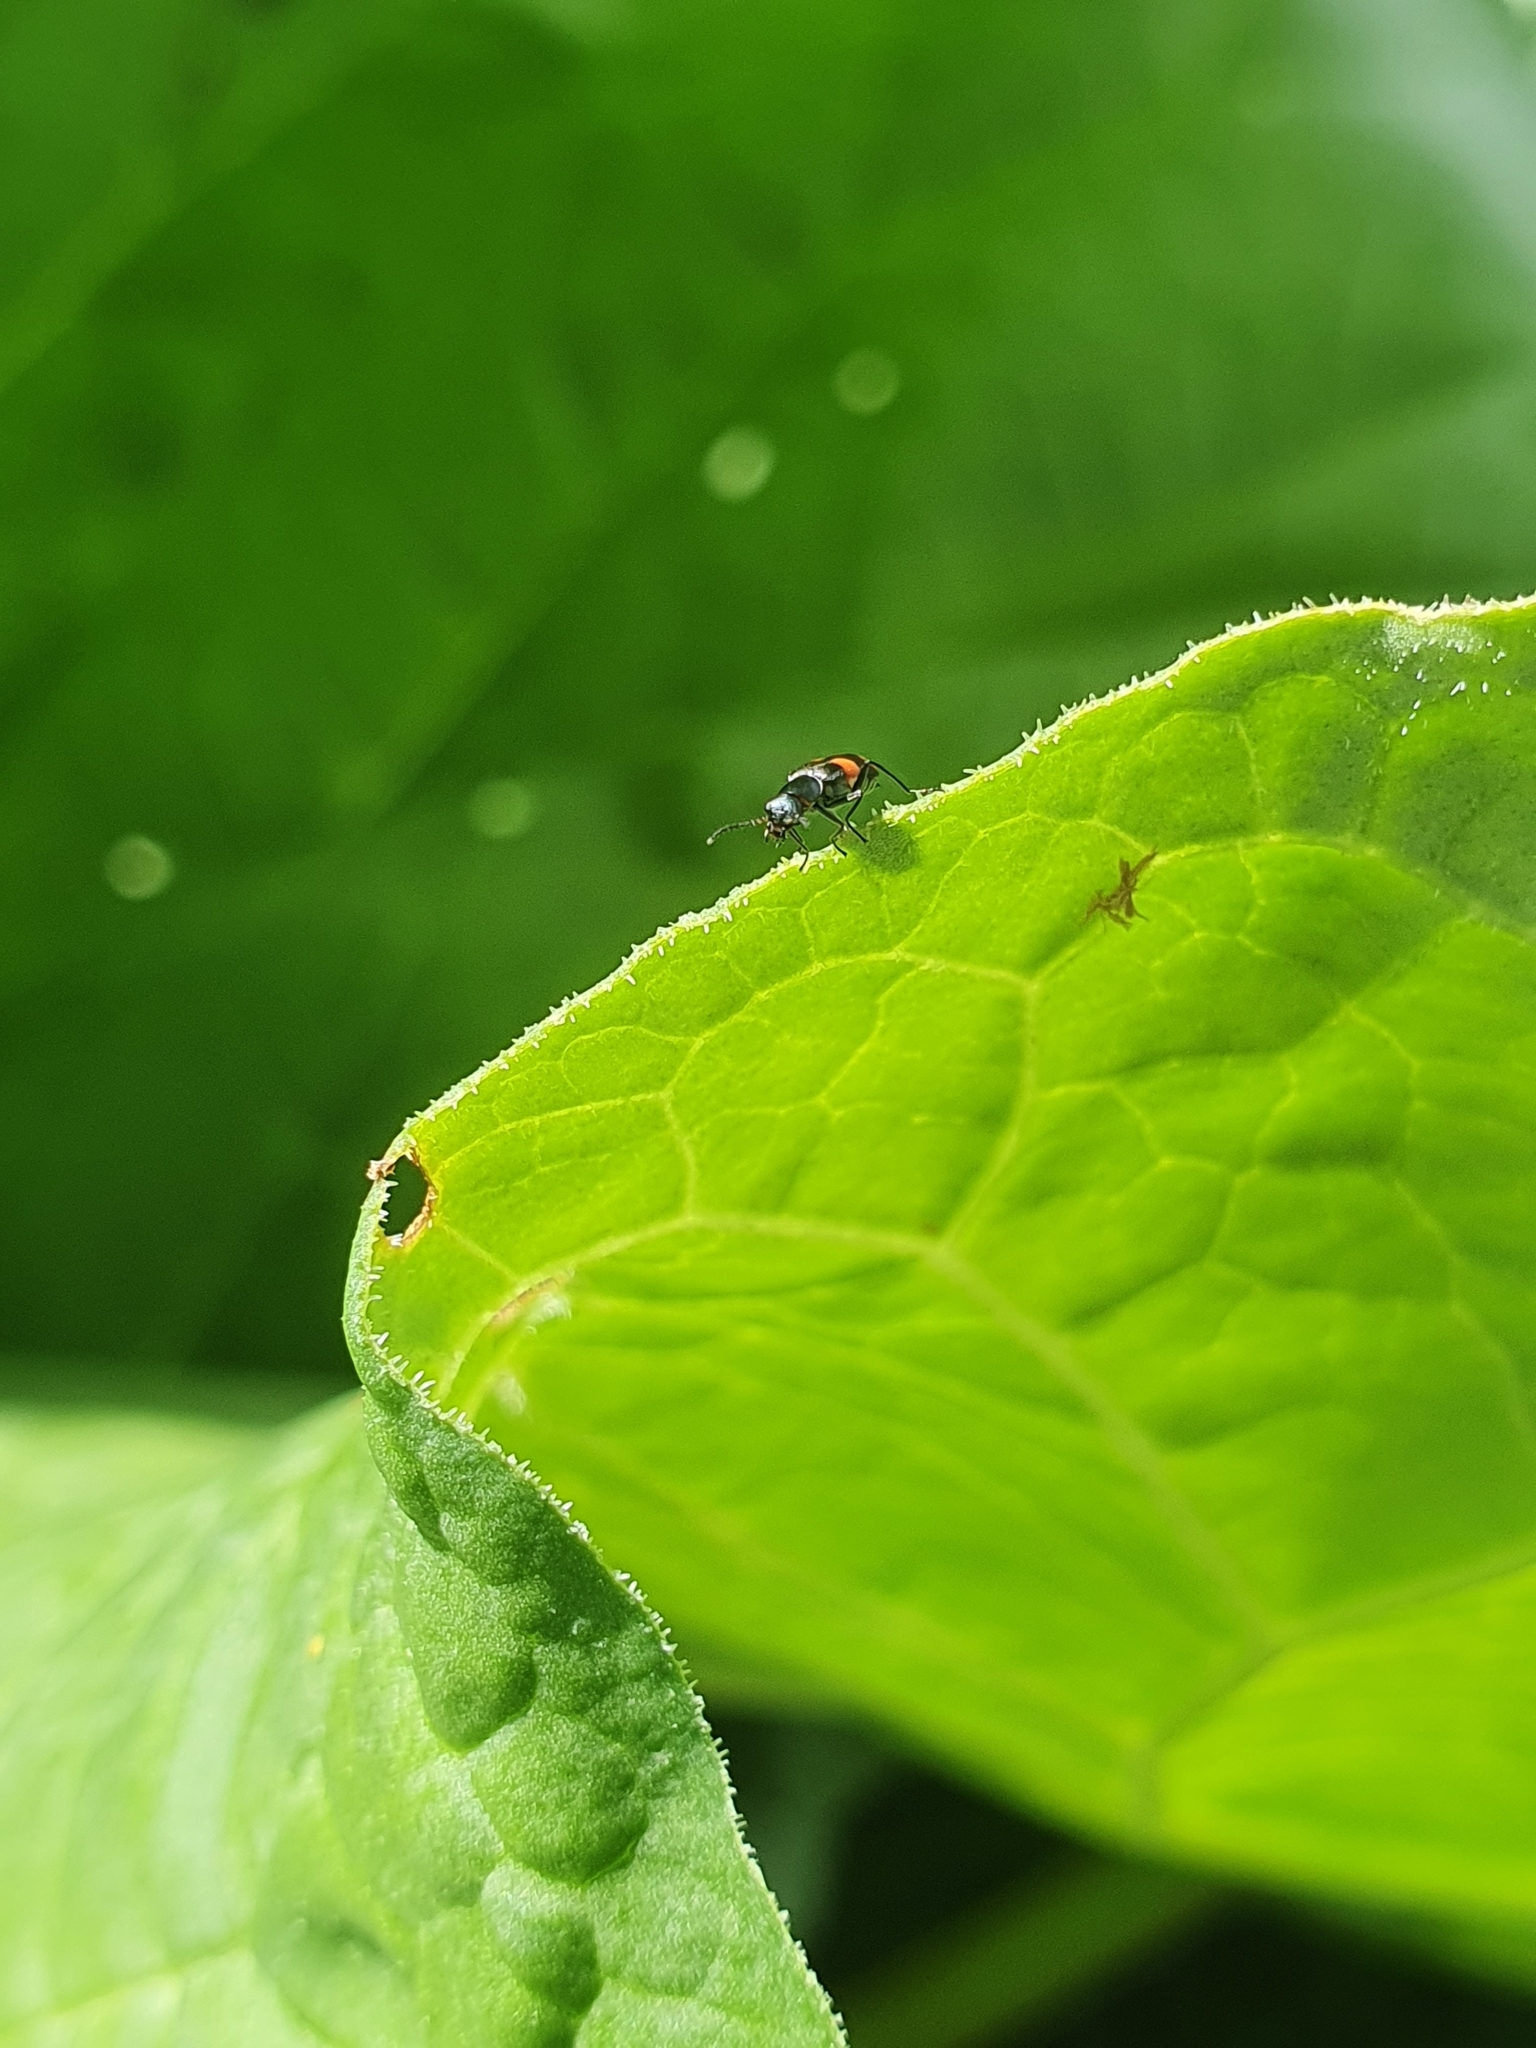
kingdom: Animalia
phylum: Arthropoda
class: Insecta
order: Coleoptera
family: Melyridae
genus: Anthocomus
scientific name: Anthocomus fasciatus
